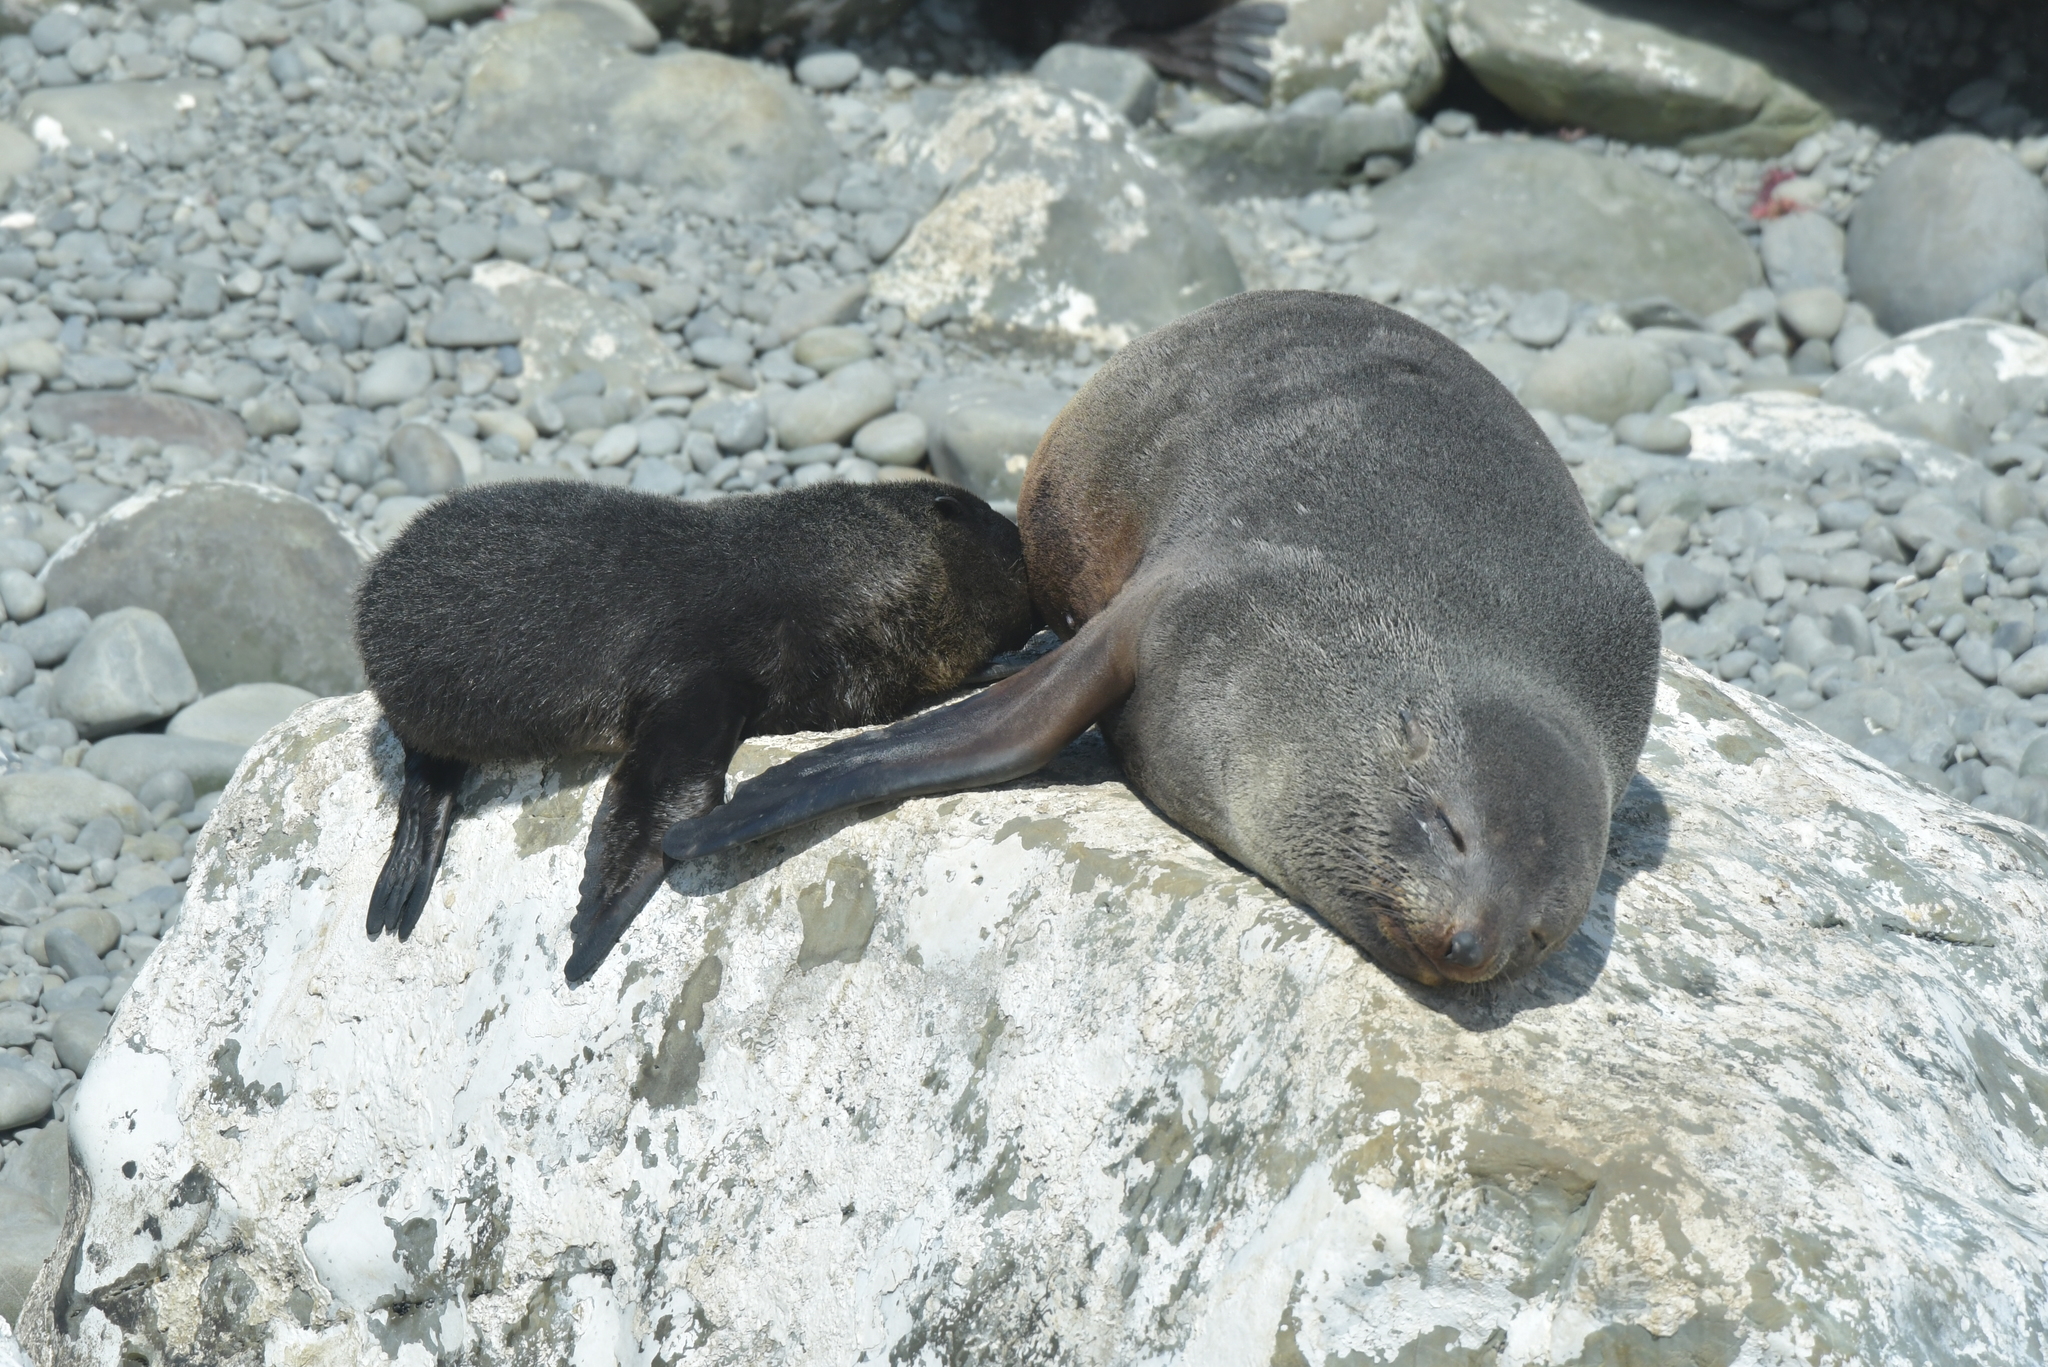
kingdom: Animalia
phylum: Chordata
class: Mammalia
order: Carnivora
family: Otariidae
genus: Arctocephalus
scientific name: Arctocephalus forsteri
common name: New zealand fur seal
